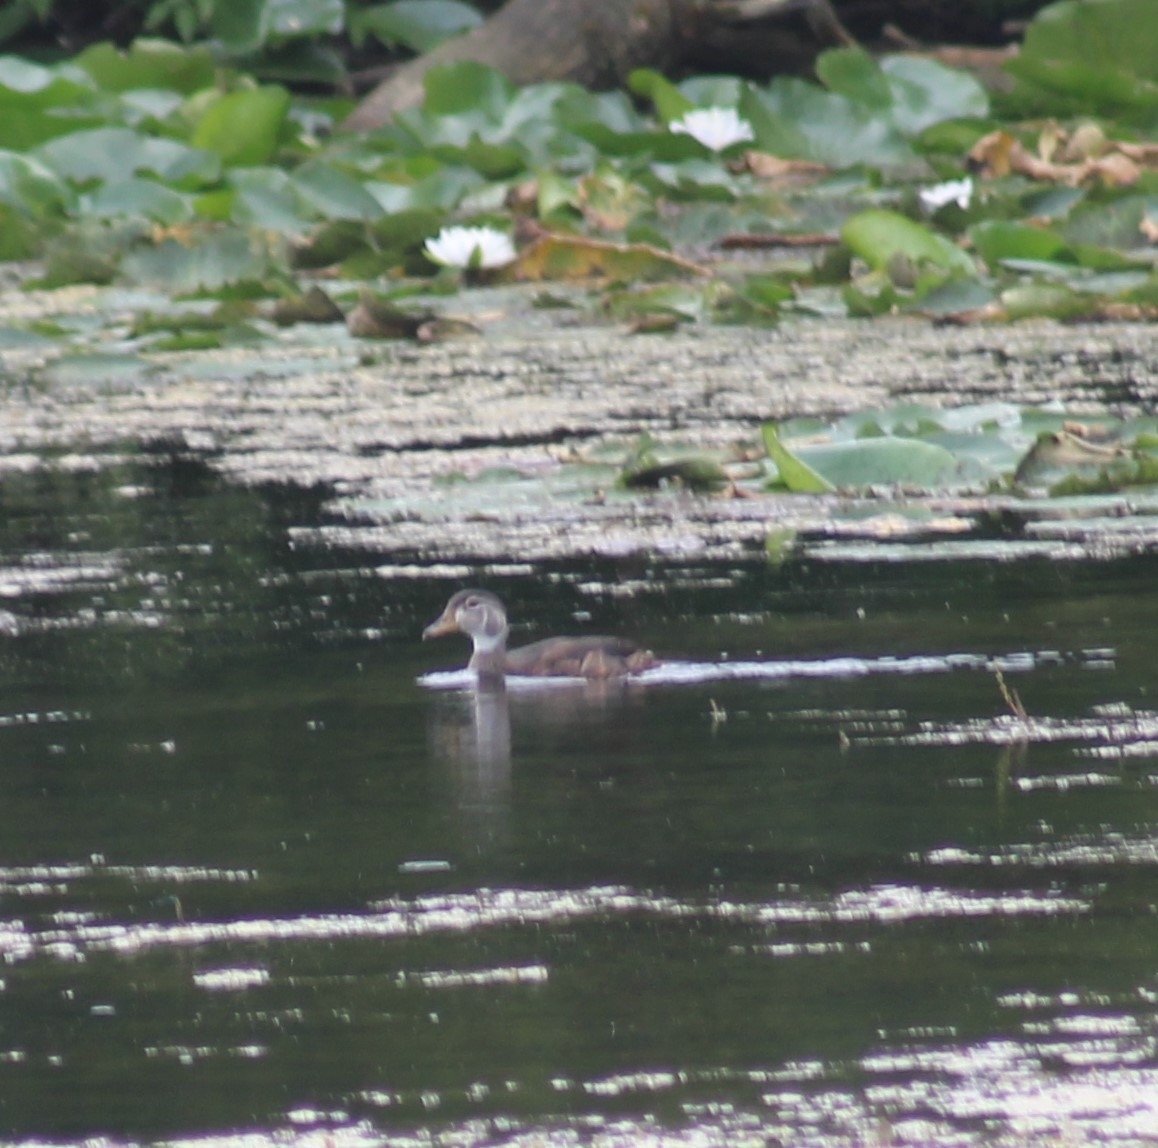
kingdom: Animalia
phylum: Chordata
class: Aves
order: Anseriformes
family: Anatidae
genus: Aix
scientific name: Aix sponsa
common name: Wood duck
